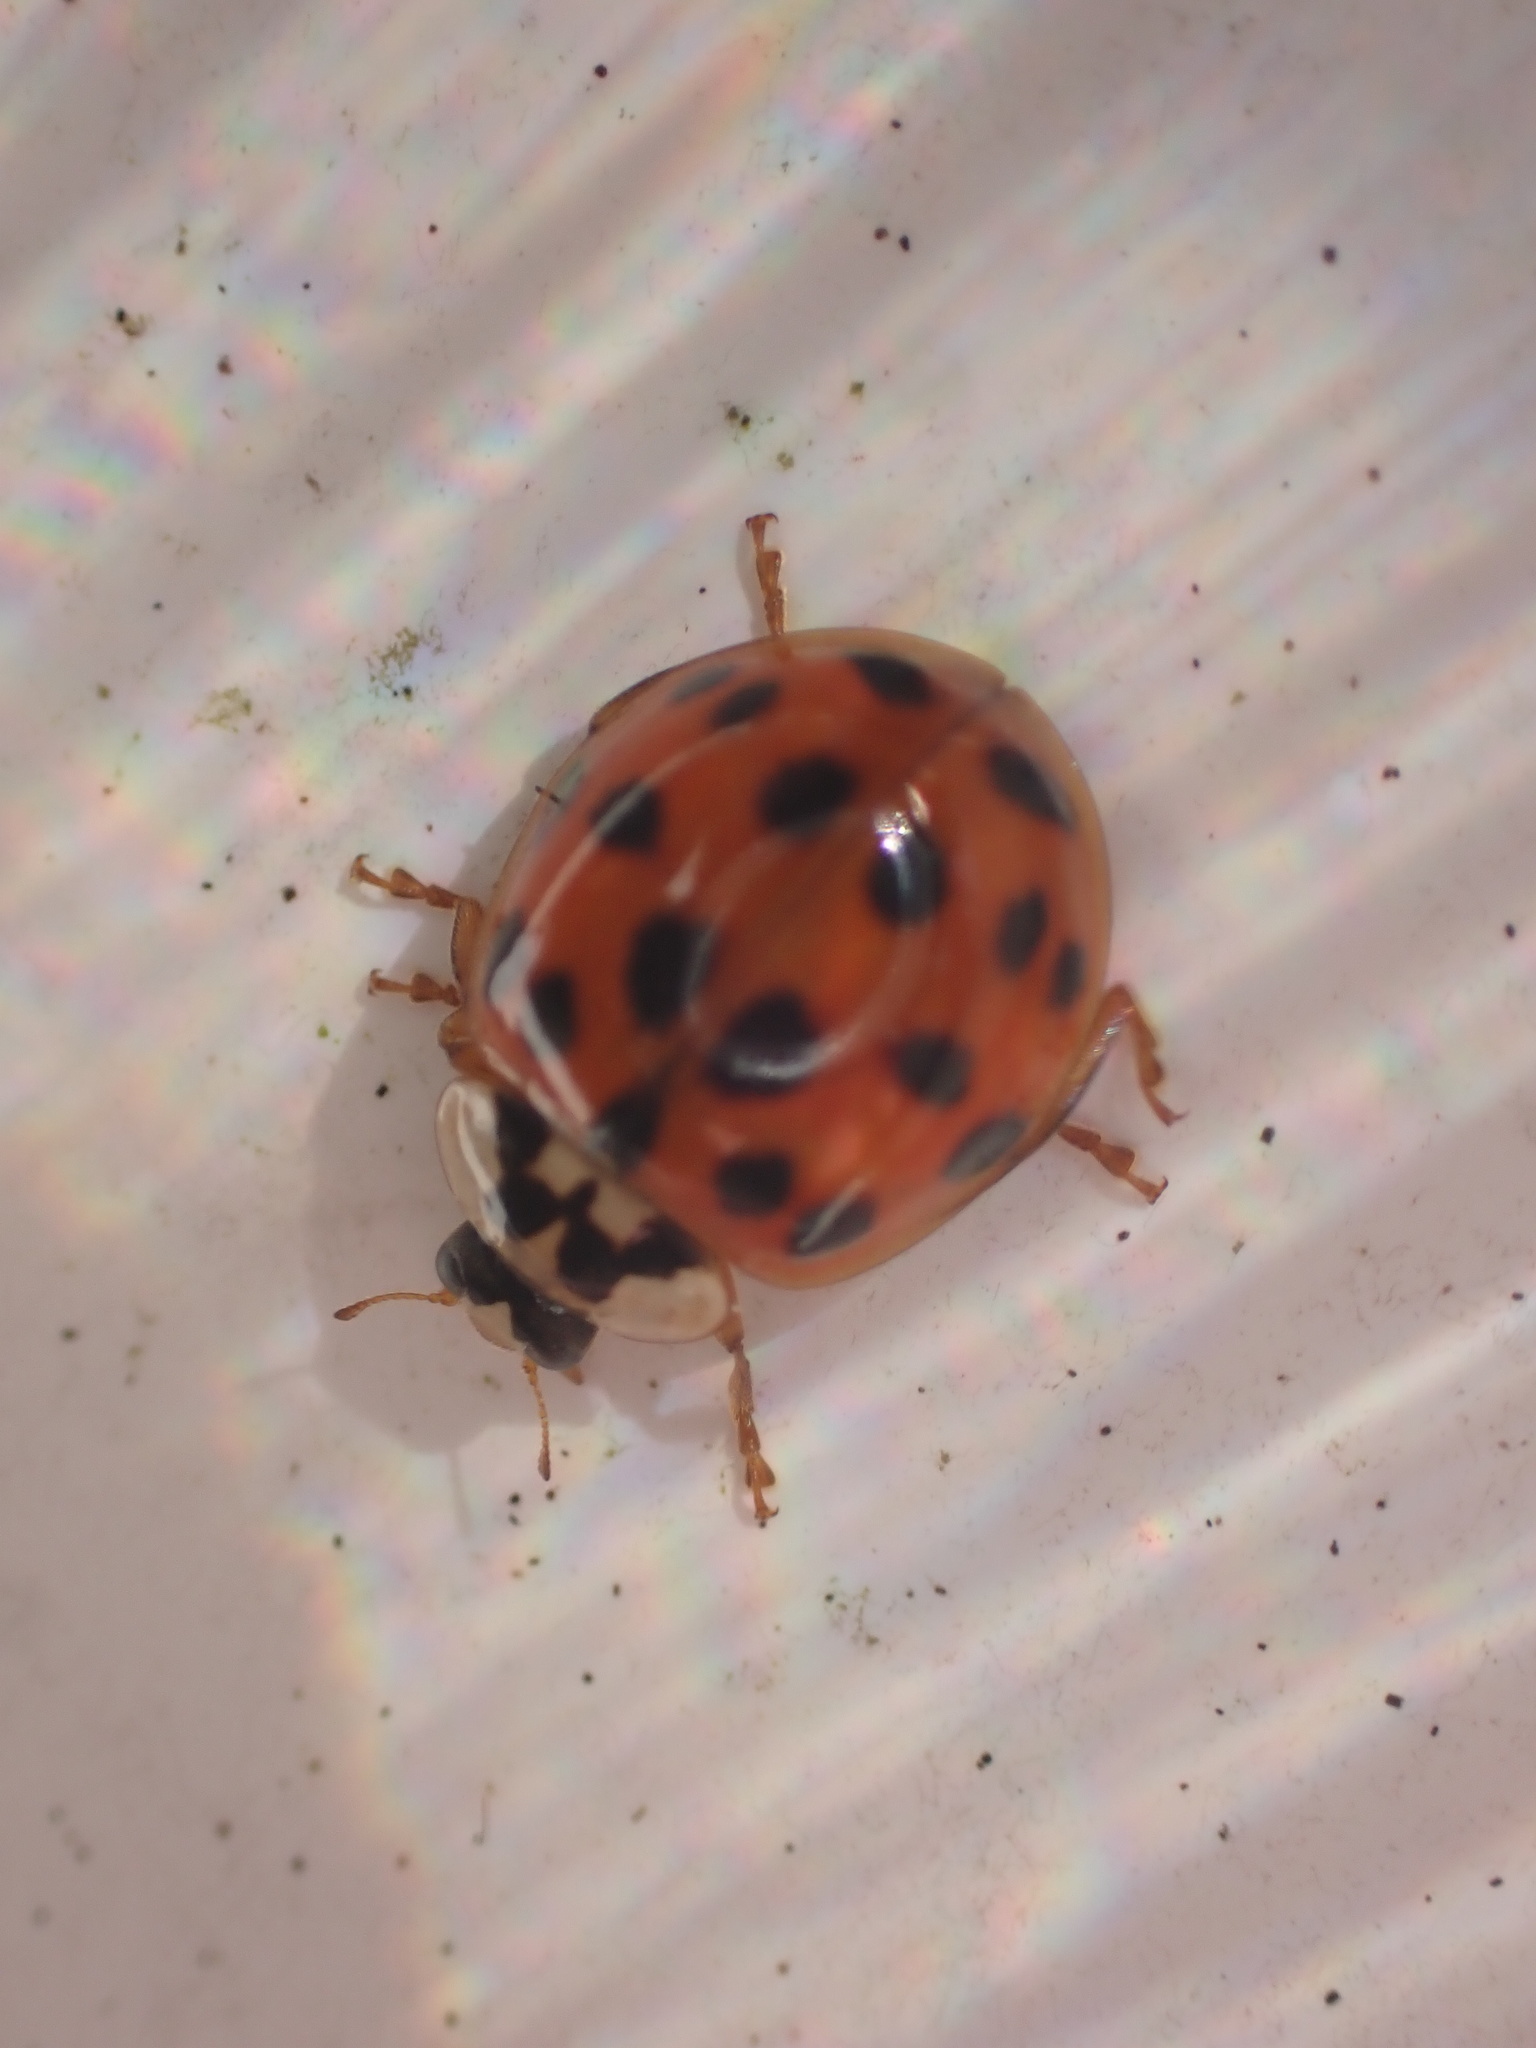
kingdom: Animalia
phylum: Arthropoda
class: Insecta
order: Coleoptera
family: Coccinellidae
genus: Harmonia
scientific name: Harmonia axyridis
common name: Harlequin ladybird
